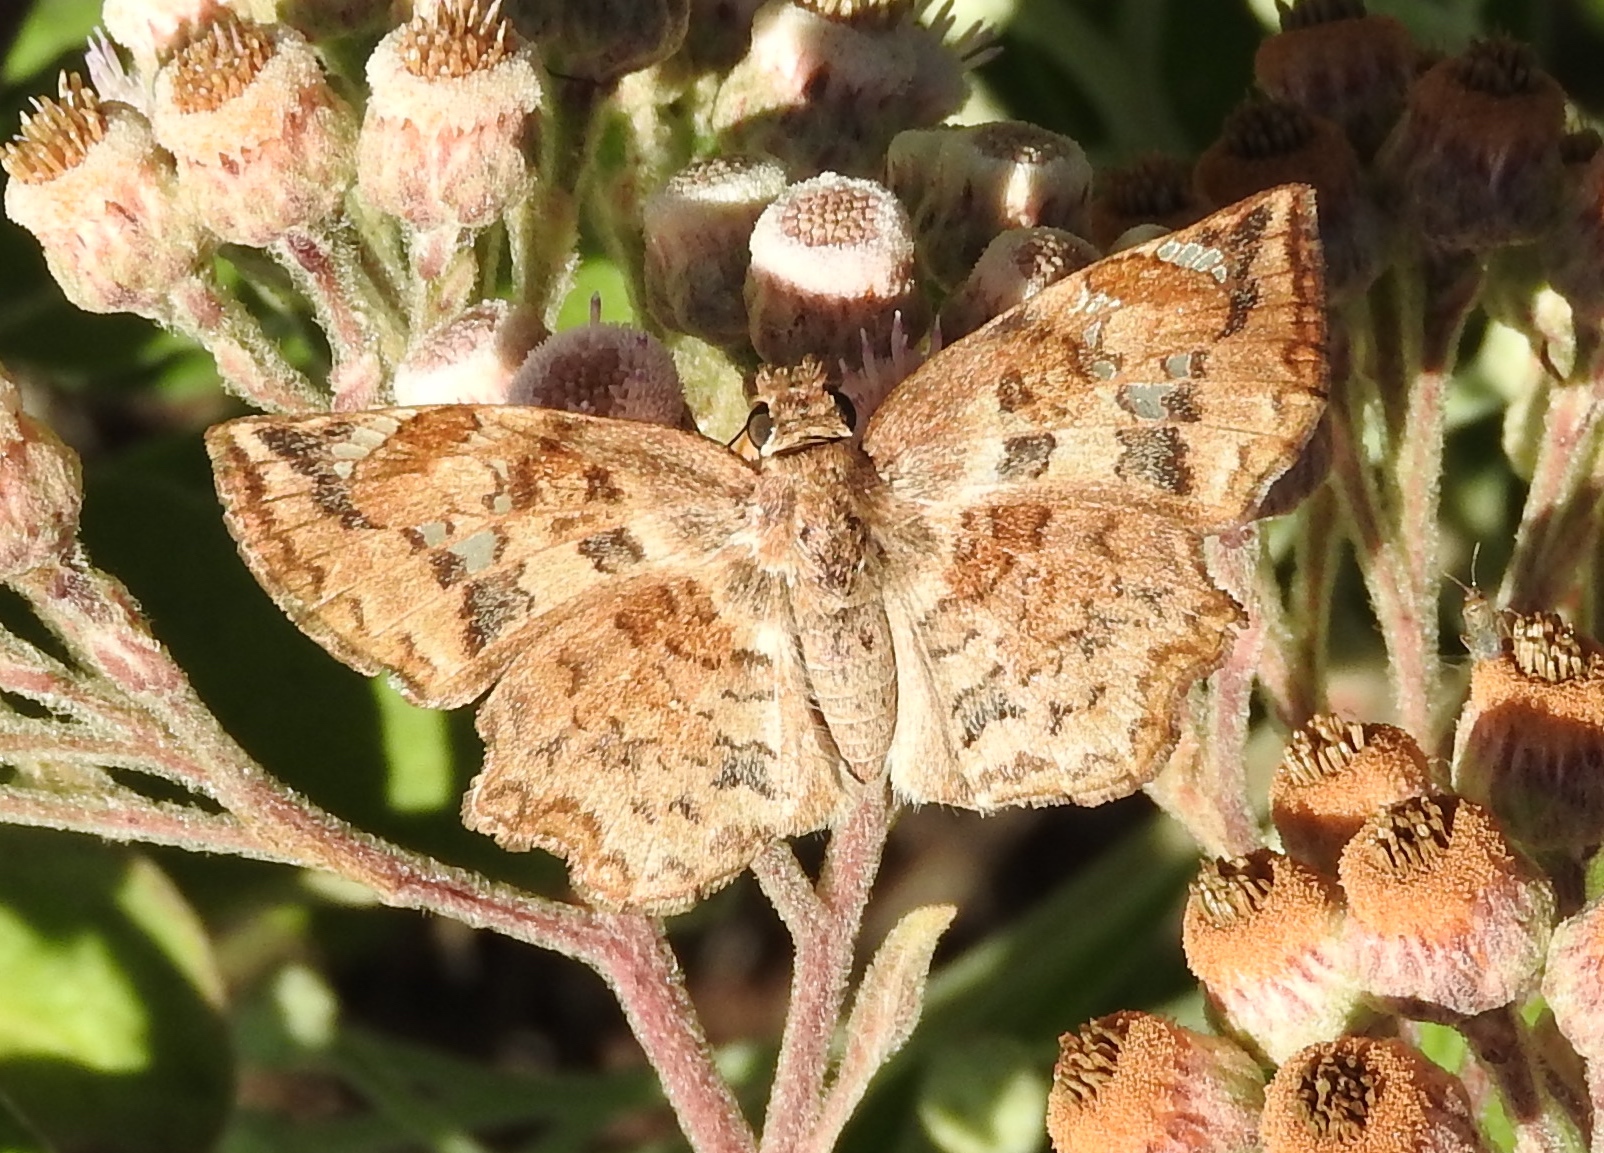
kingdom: Animalia
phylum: Arthropoda
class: Insecta
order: Lepidoptera
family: Hesperiidae
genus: Antigonus
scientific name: Antigonus erosus
